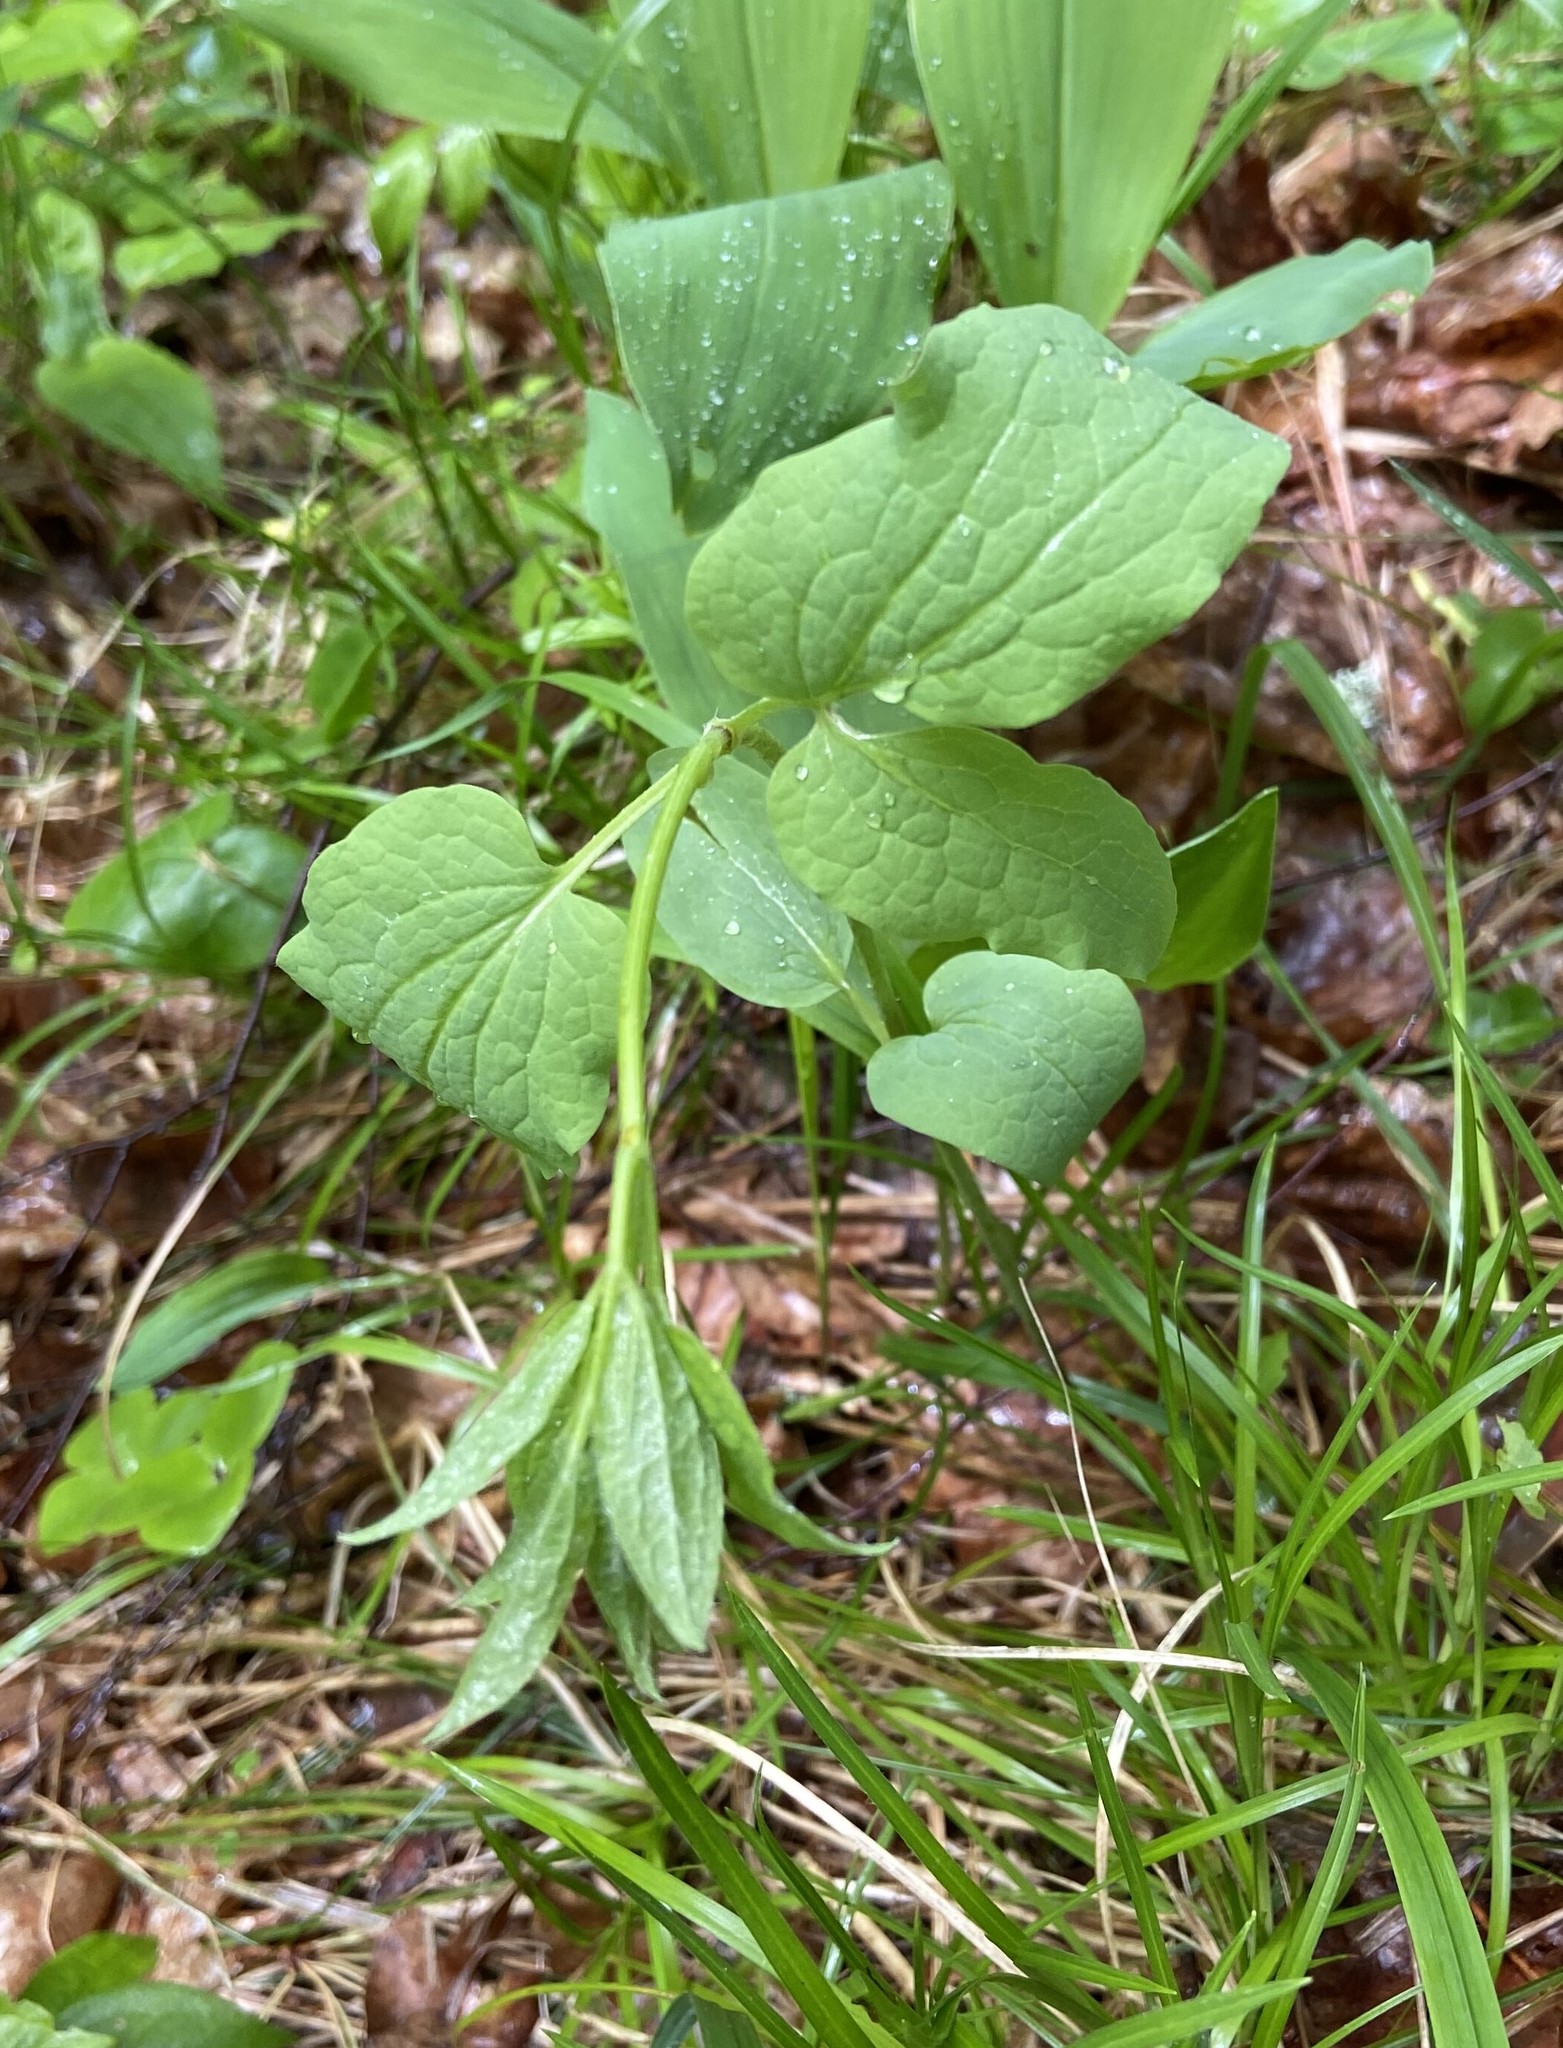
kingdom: Plantae
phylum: Tracheophyta
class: Magnoliopsida
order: Ranunculales
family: Ranunculaceae
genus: Clematis
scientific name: Clematis recta
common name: Ground clematis
